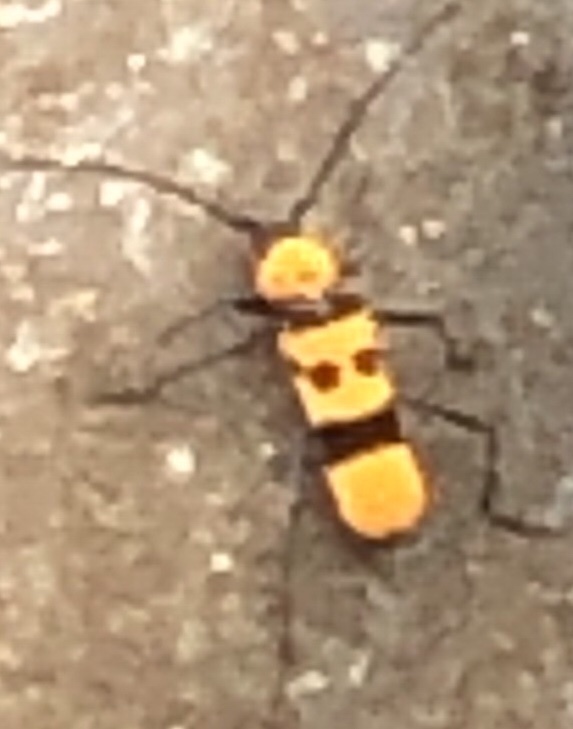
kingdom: Animalia
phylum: Arthropoda
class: Insecta
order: Coleoptera
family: Cerambycidae
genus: Rosalia
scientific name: Rosalia formosa
